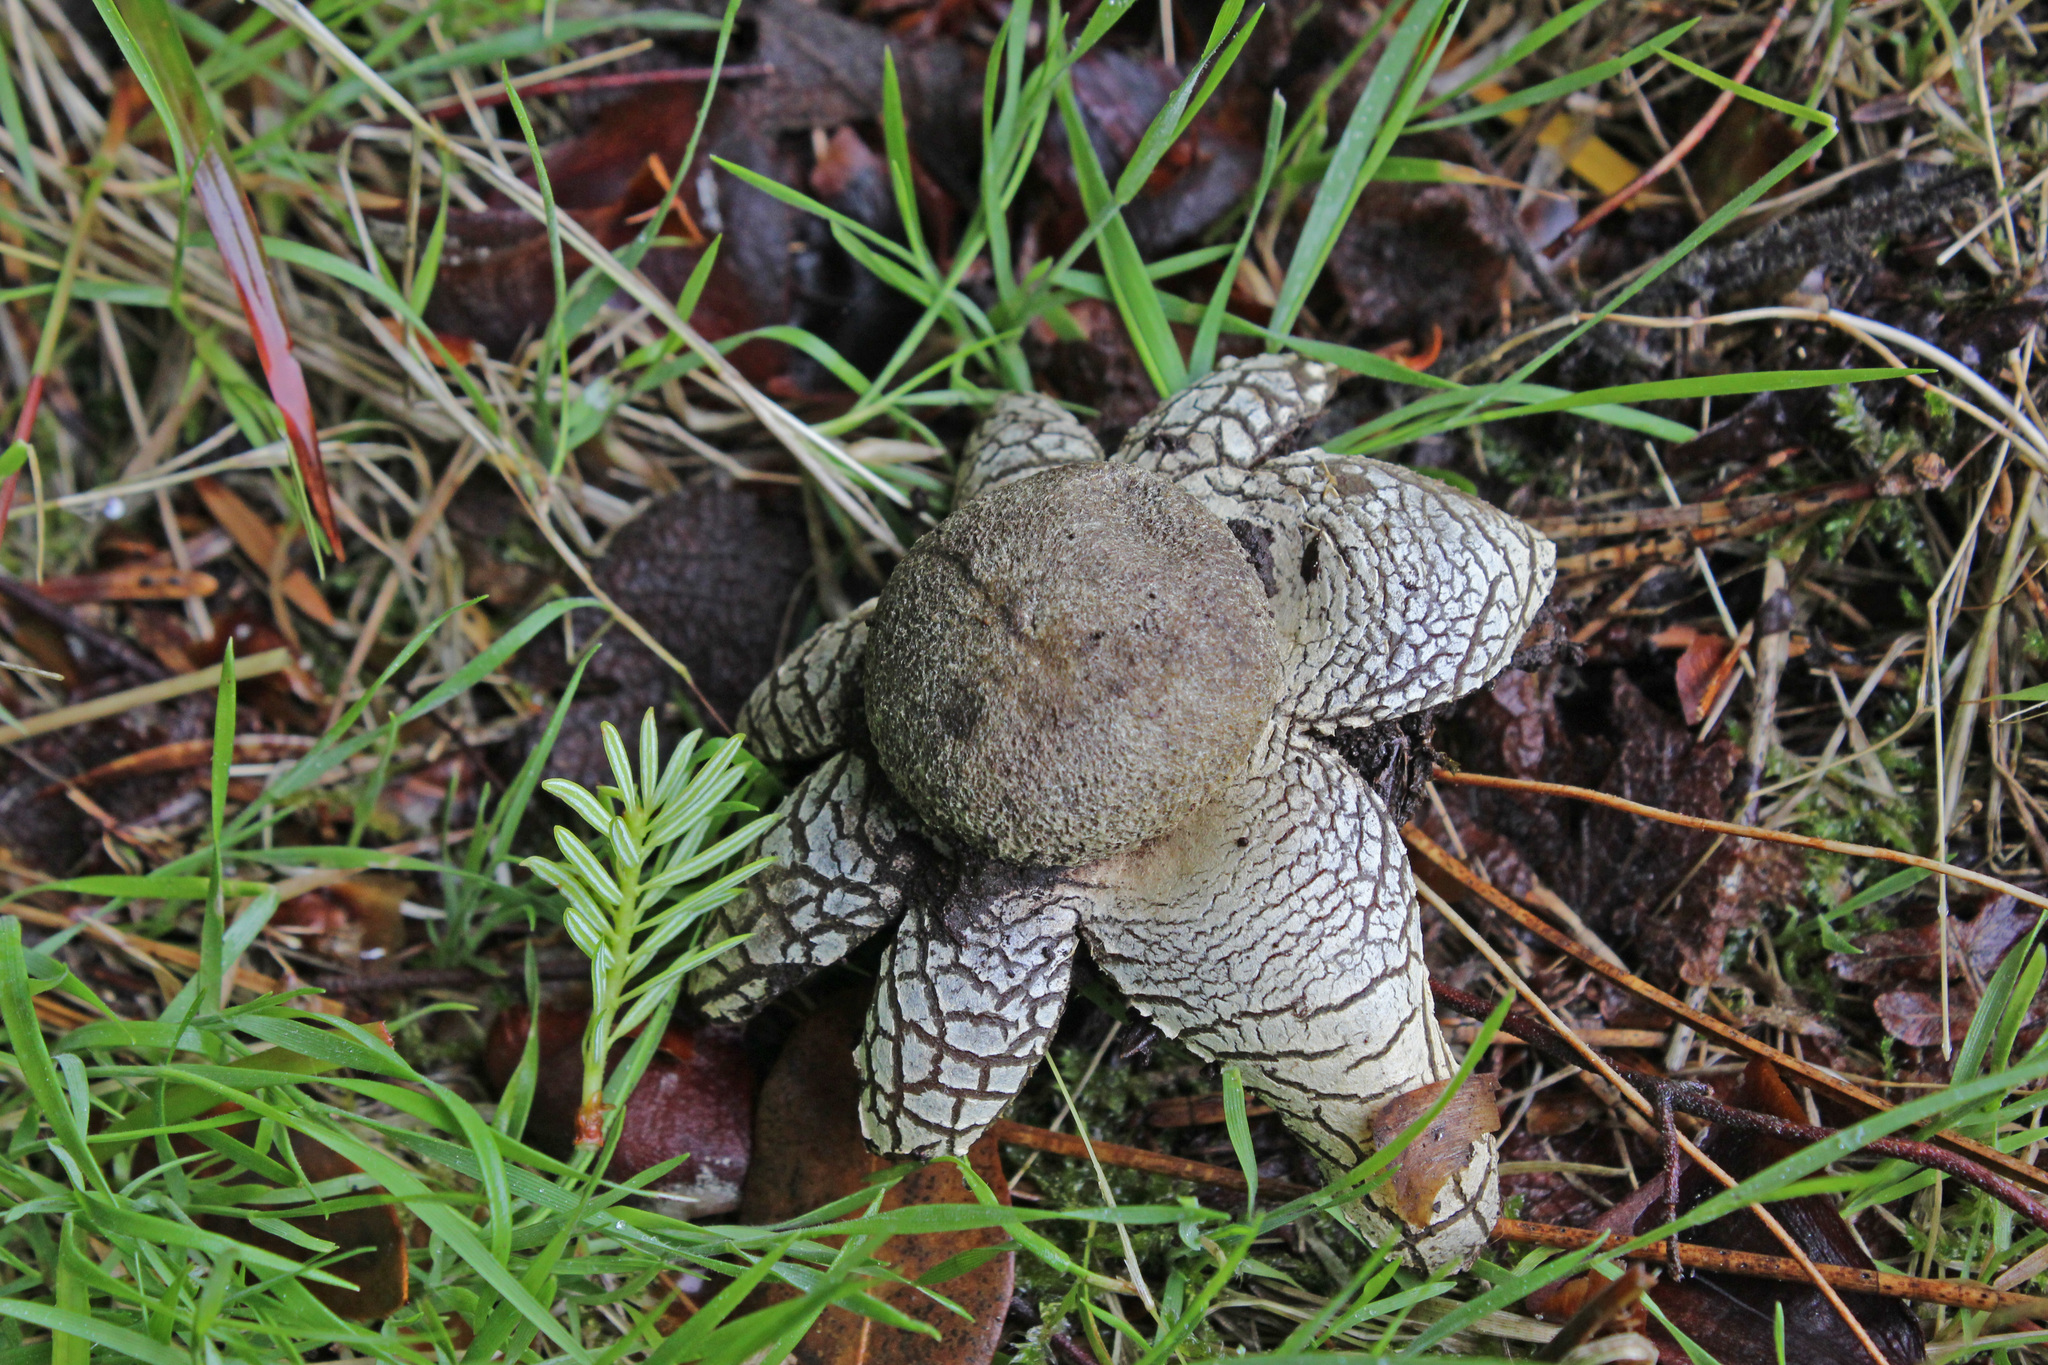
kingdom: Fungi
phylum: Basidiomycota
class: Agaricomycetes
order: Boletales
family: Diplocystidiaceae
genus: Astraeus
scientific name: Astraeus hygrometricus
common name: Barometer earthstar
